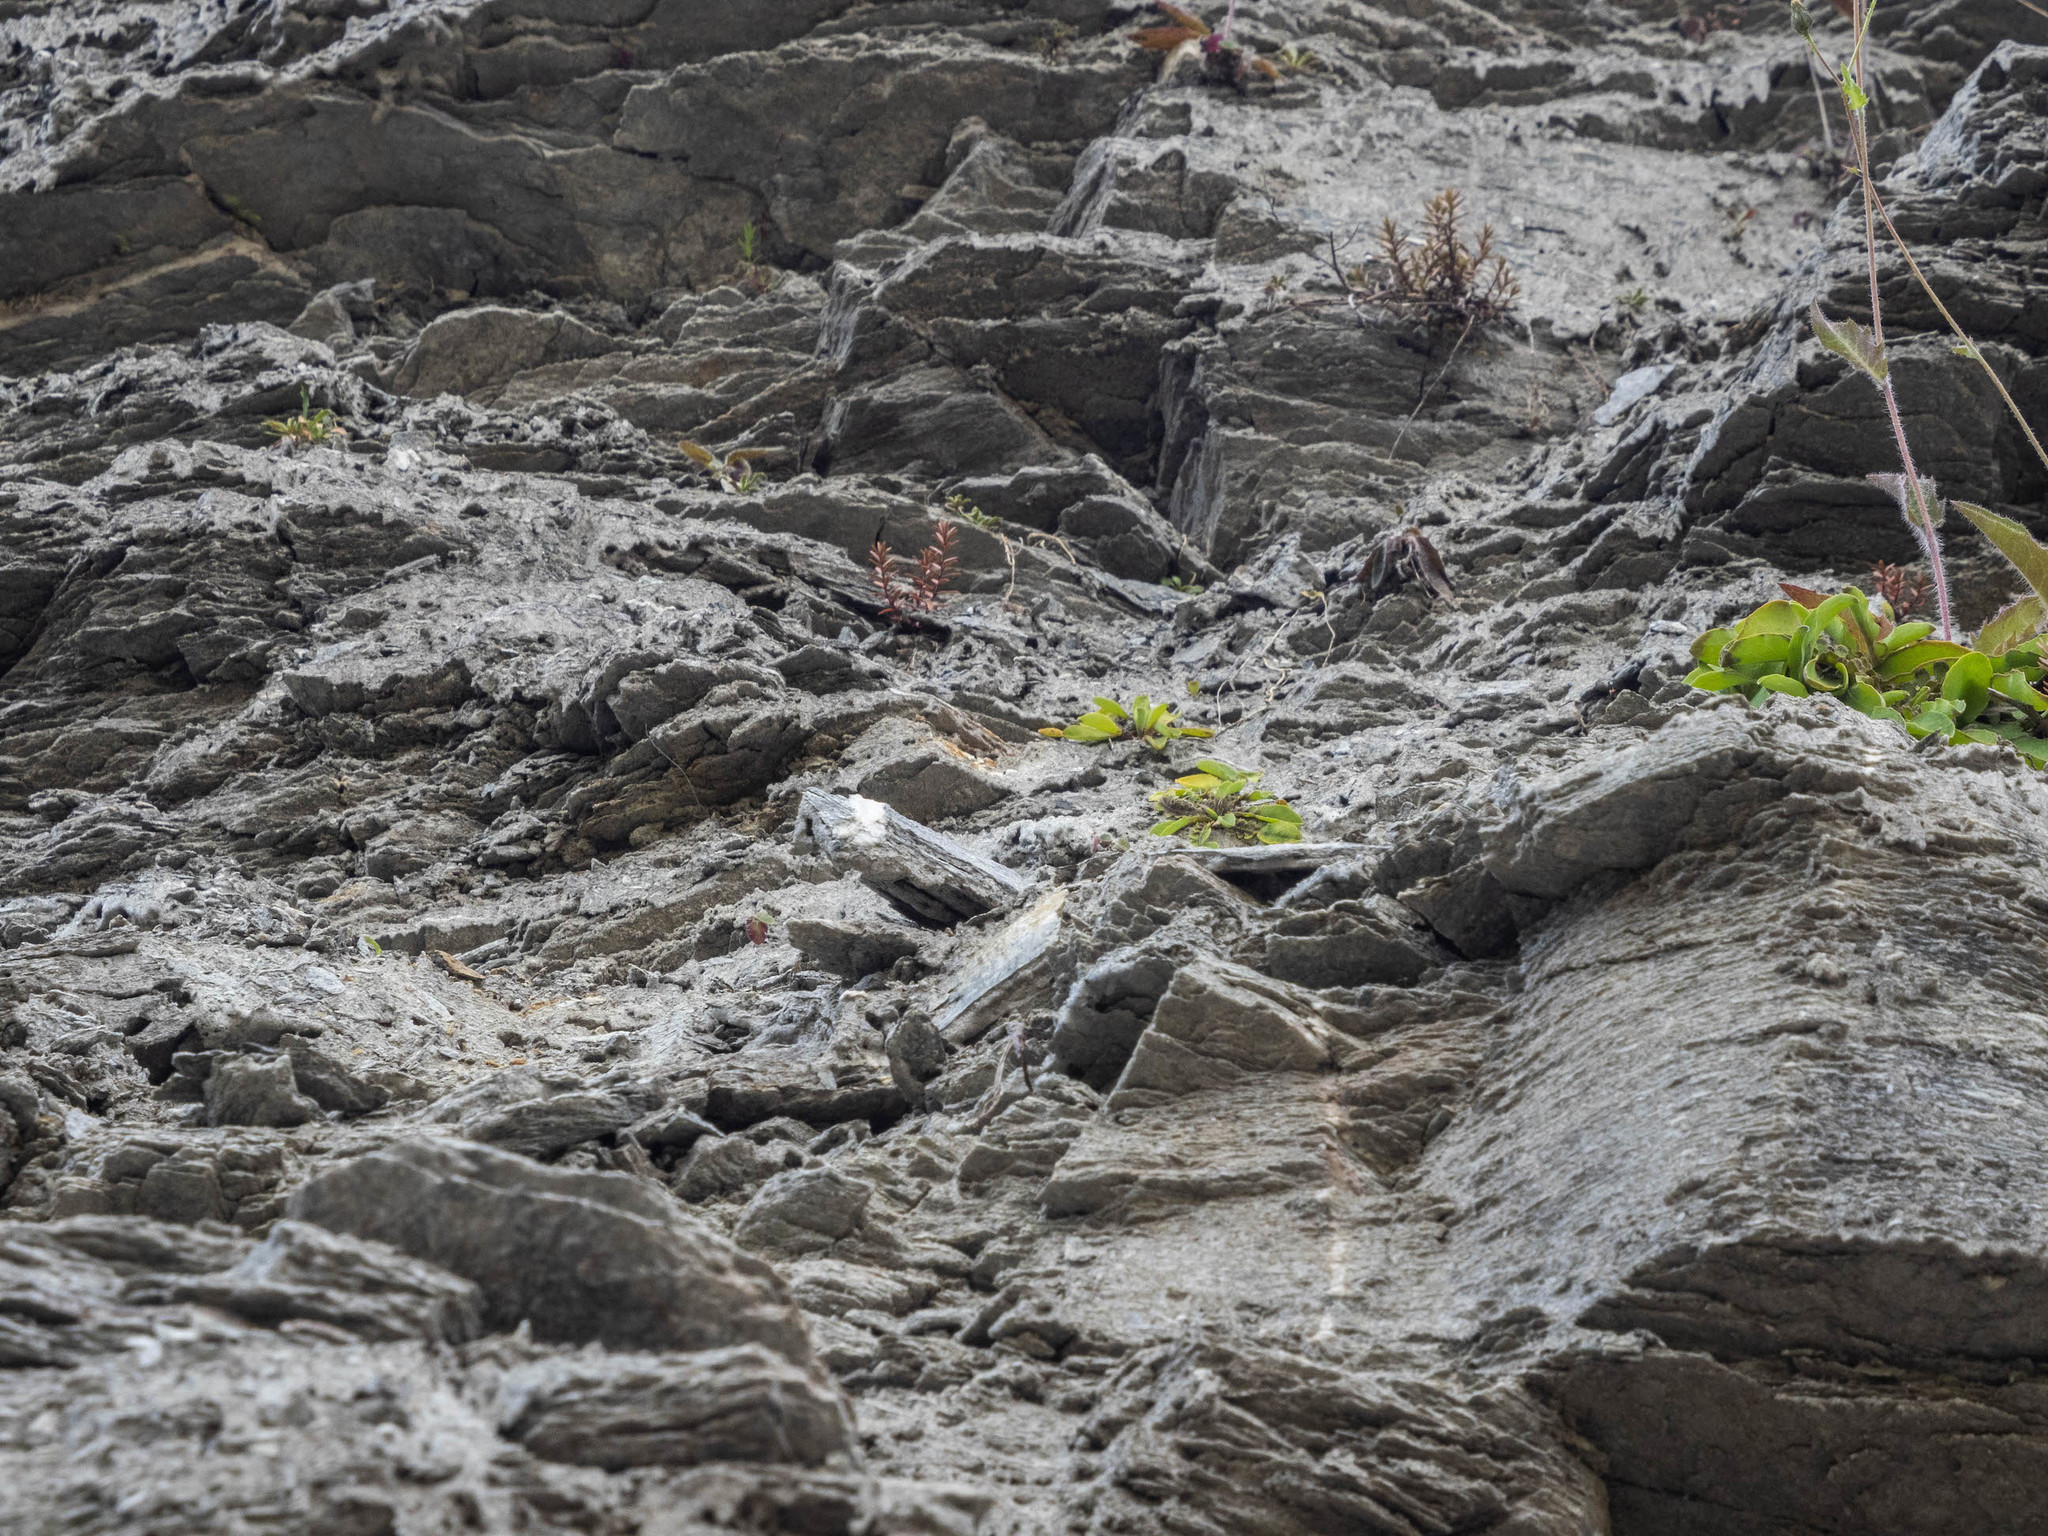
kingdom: Plantae
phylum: Tracheophyta
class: Magnoliopsida
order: Asterales
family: Asteraceae
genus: Sonchus
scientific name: Sonchus novae-zelandiae
